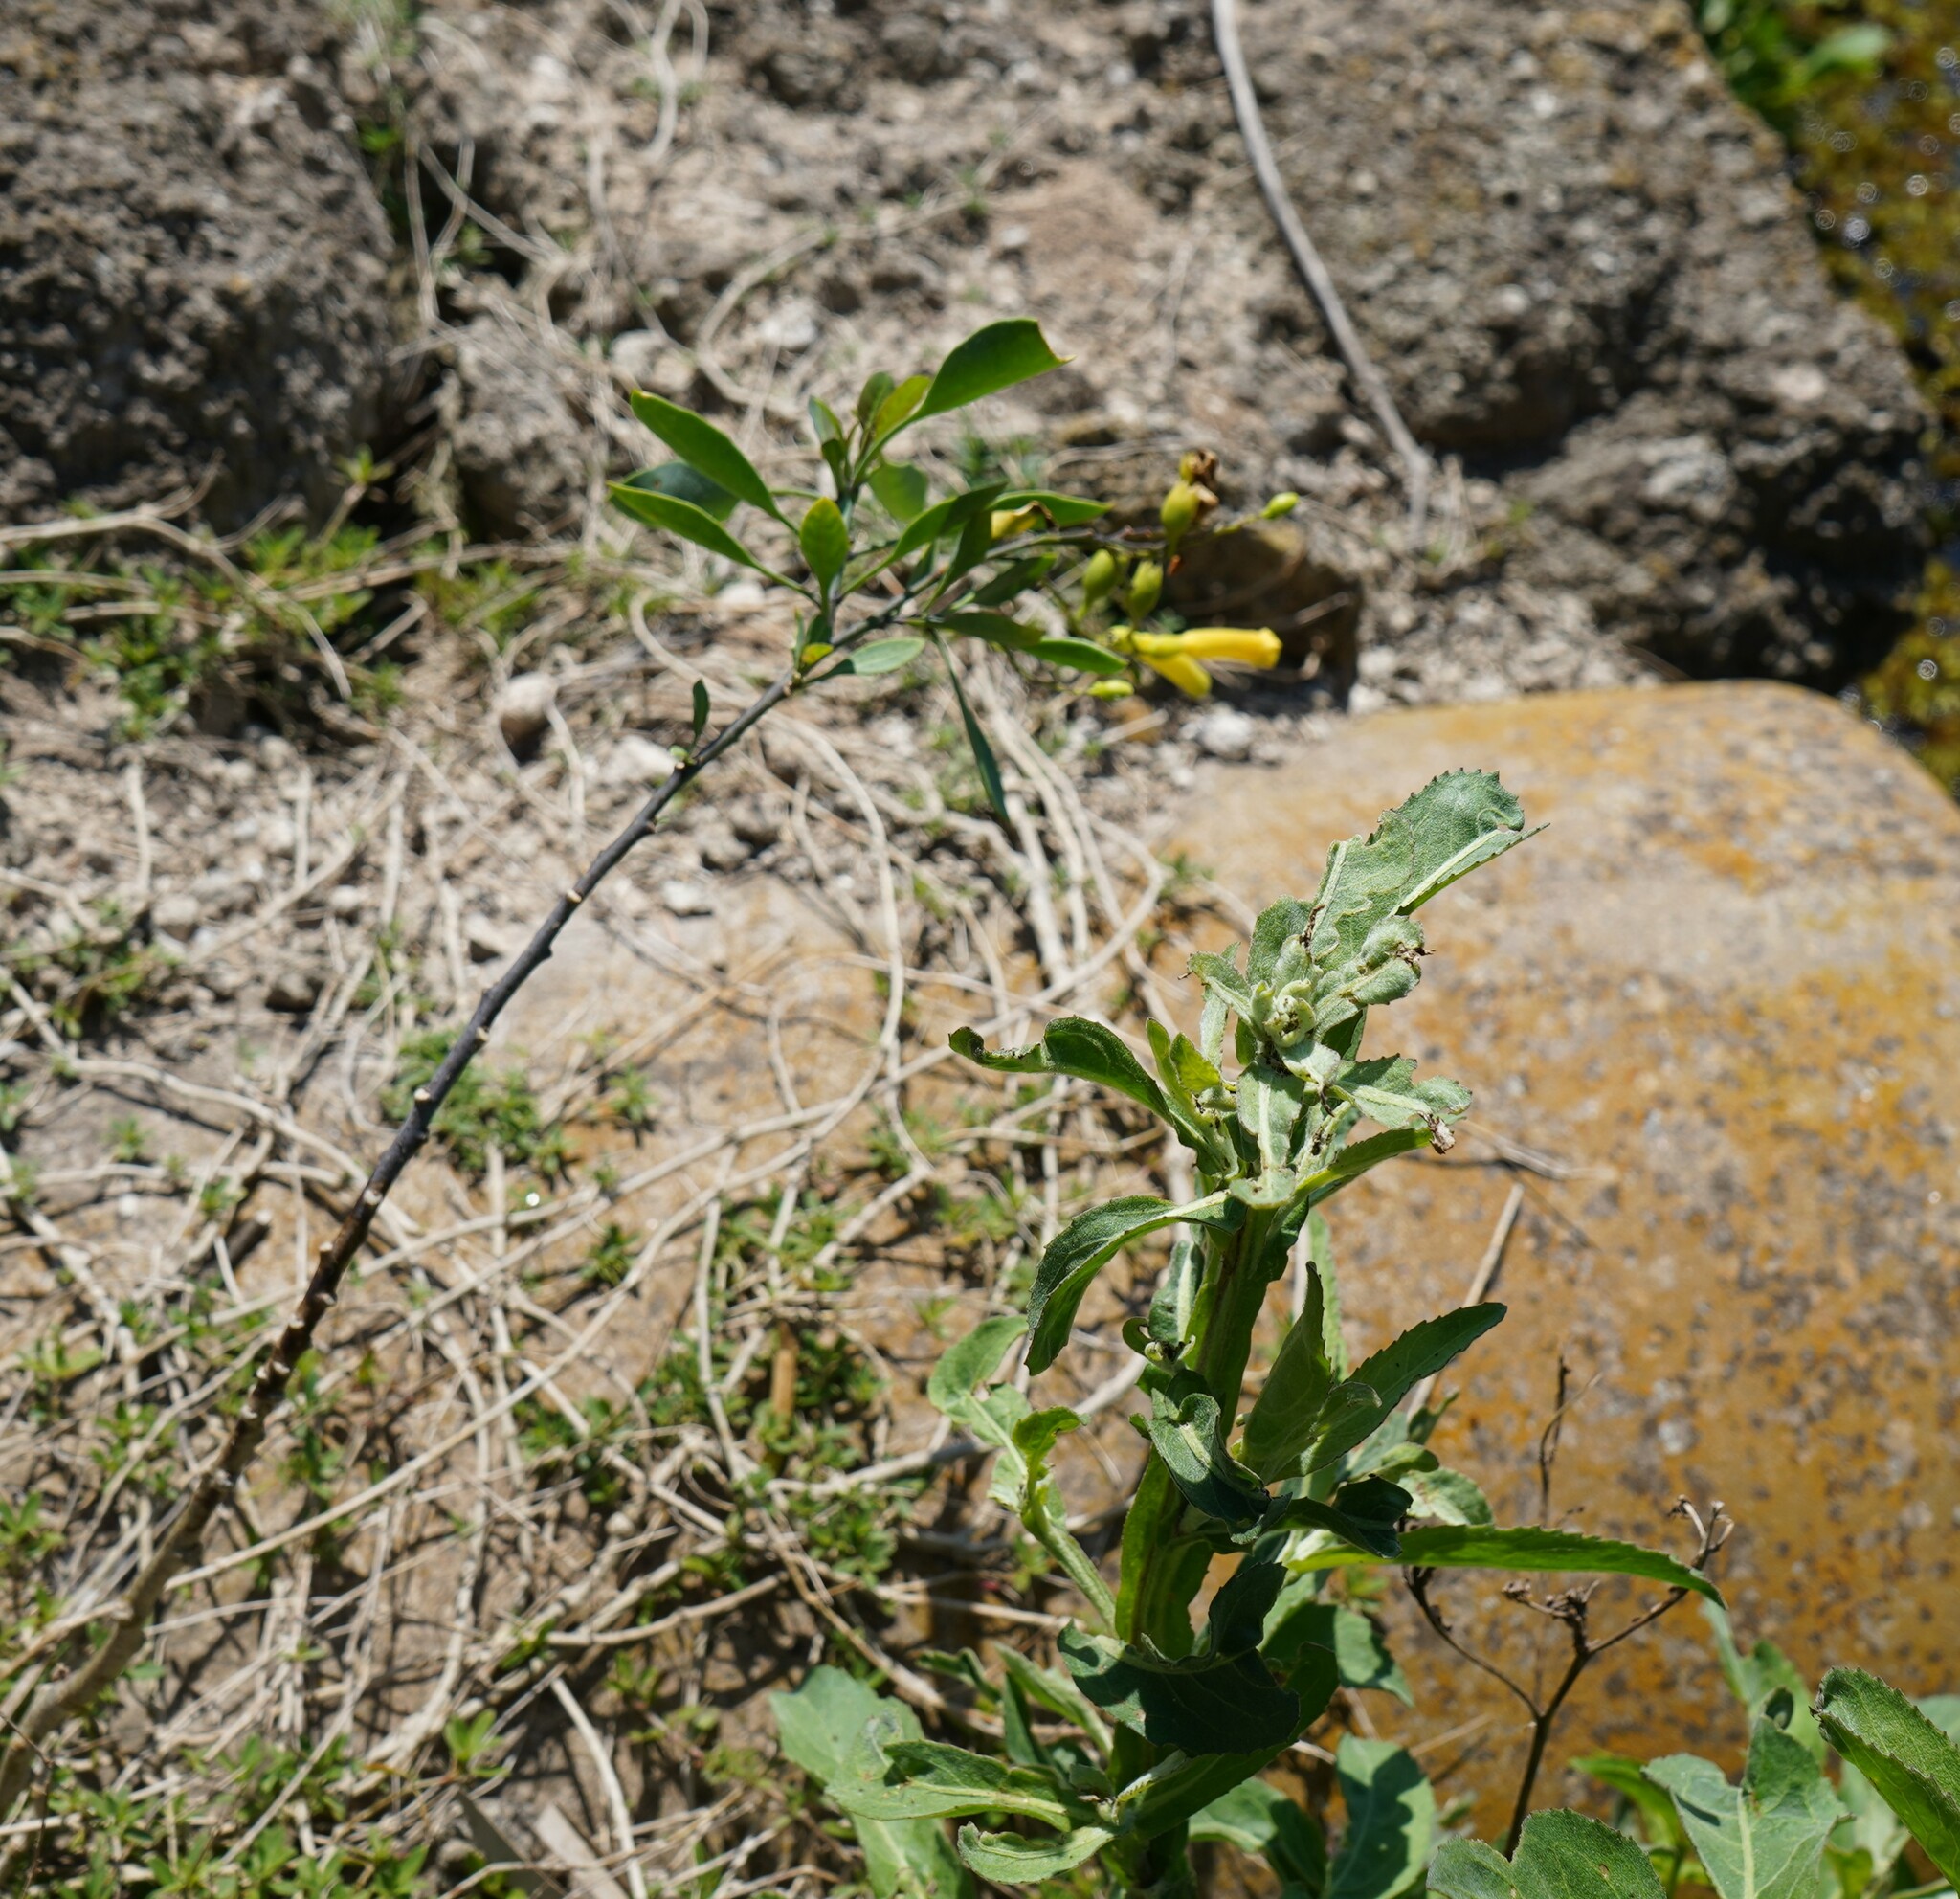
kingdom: Plantae
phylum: Tracheophyta
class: Magnoliopsida
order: Solanales
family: Solanaceae
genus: Nicotiana
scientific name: Nicotiana glauca
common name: Tree tobacco
